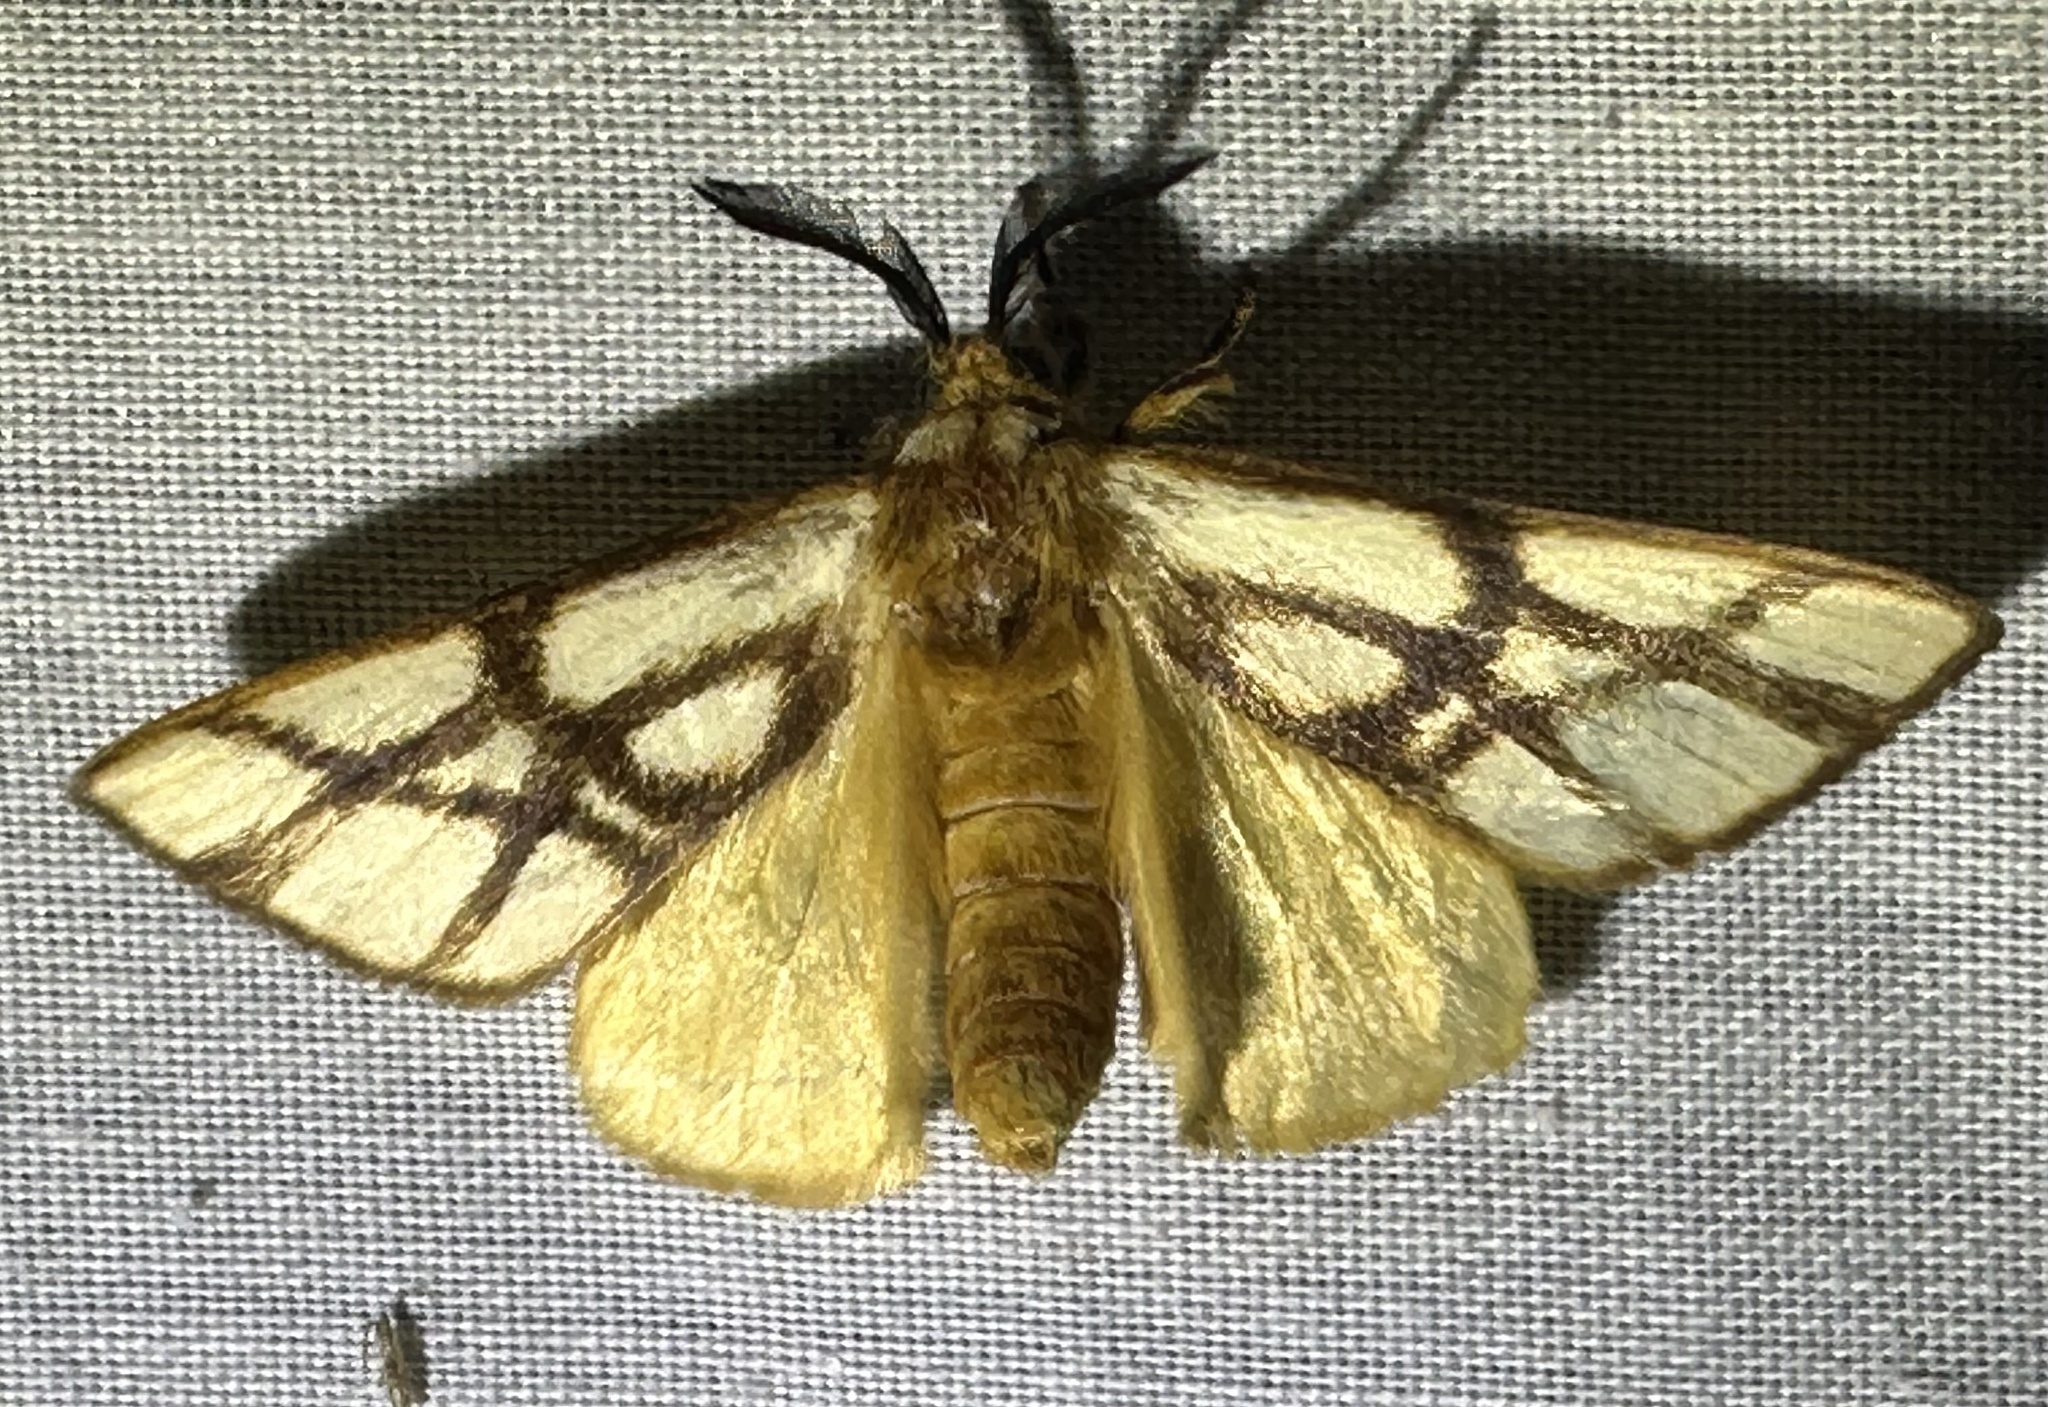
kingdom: Animalia
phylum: Arthropoda
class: Insecta
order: Lepidoptera
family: Notodontidae
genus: Anaphe
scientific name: Anaphe reticulata
